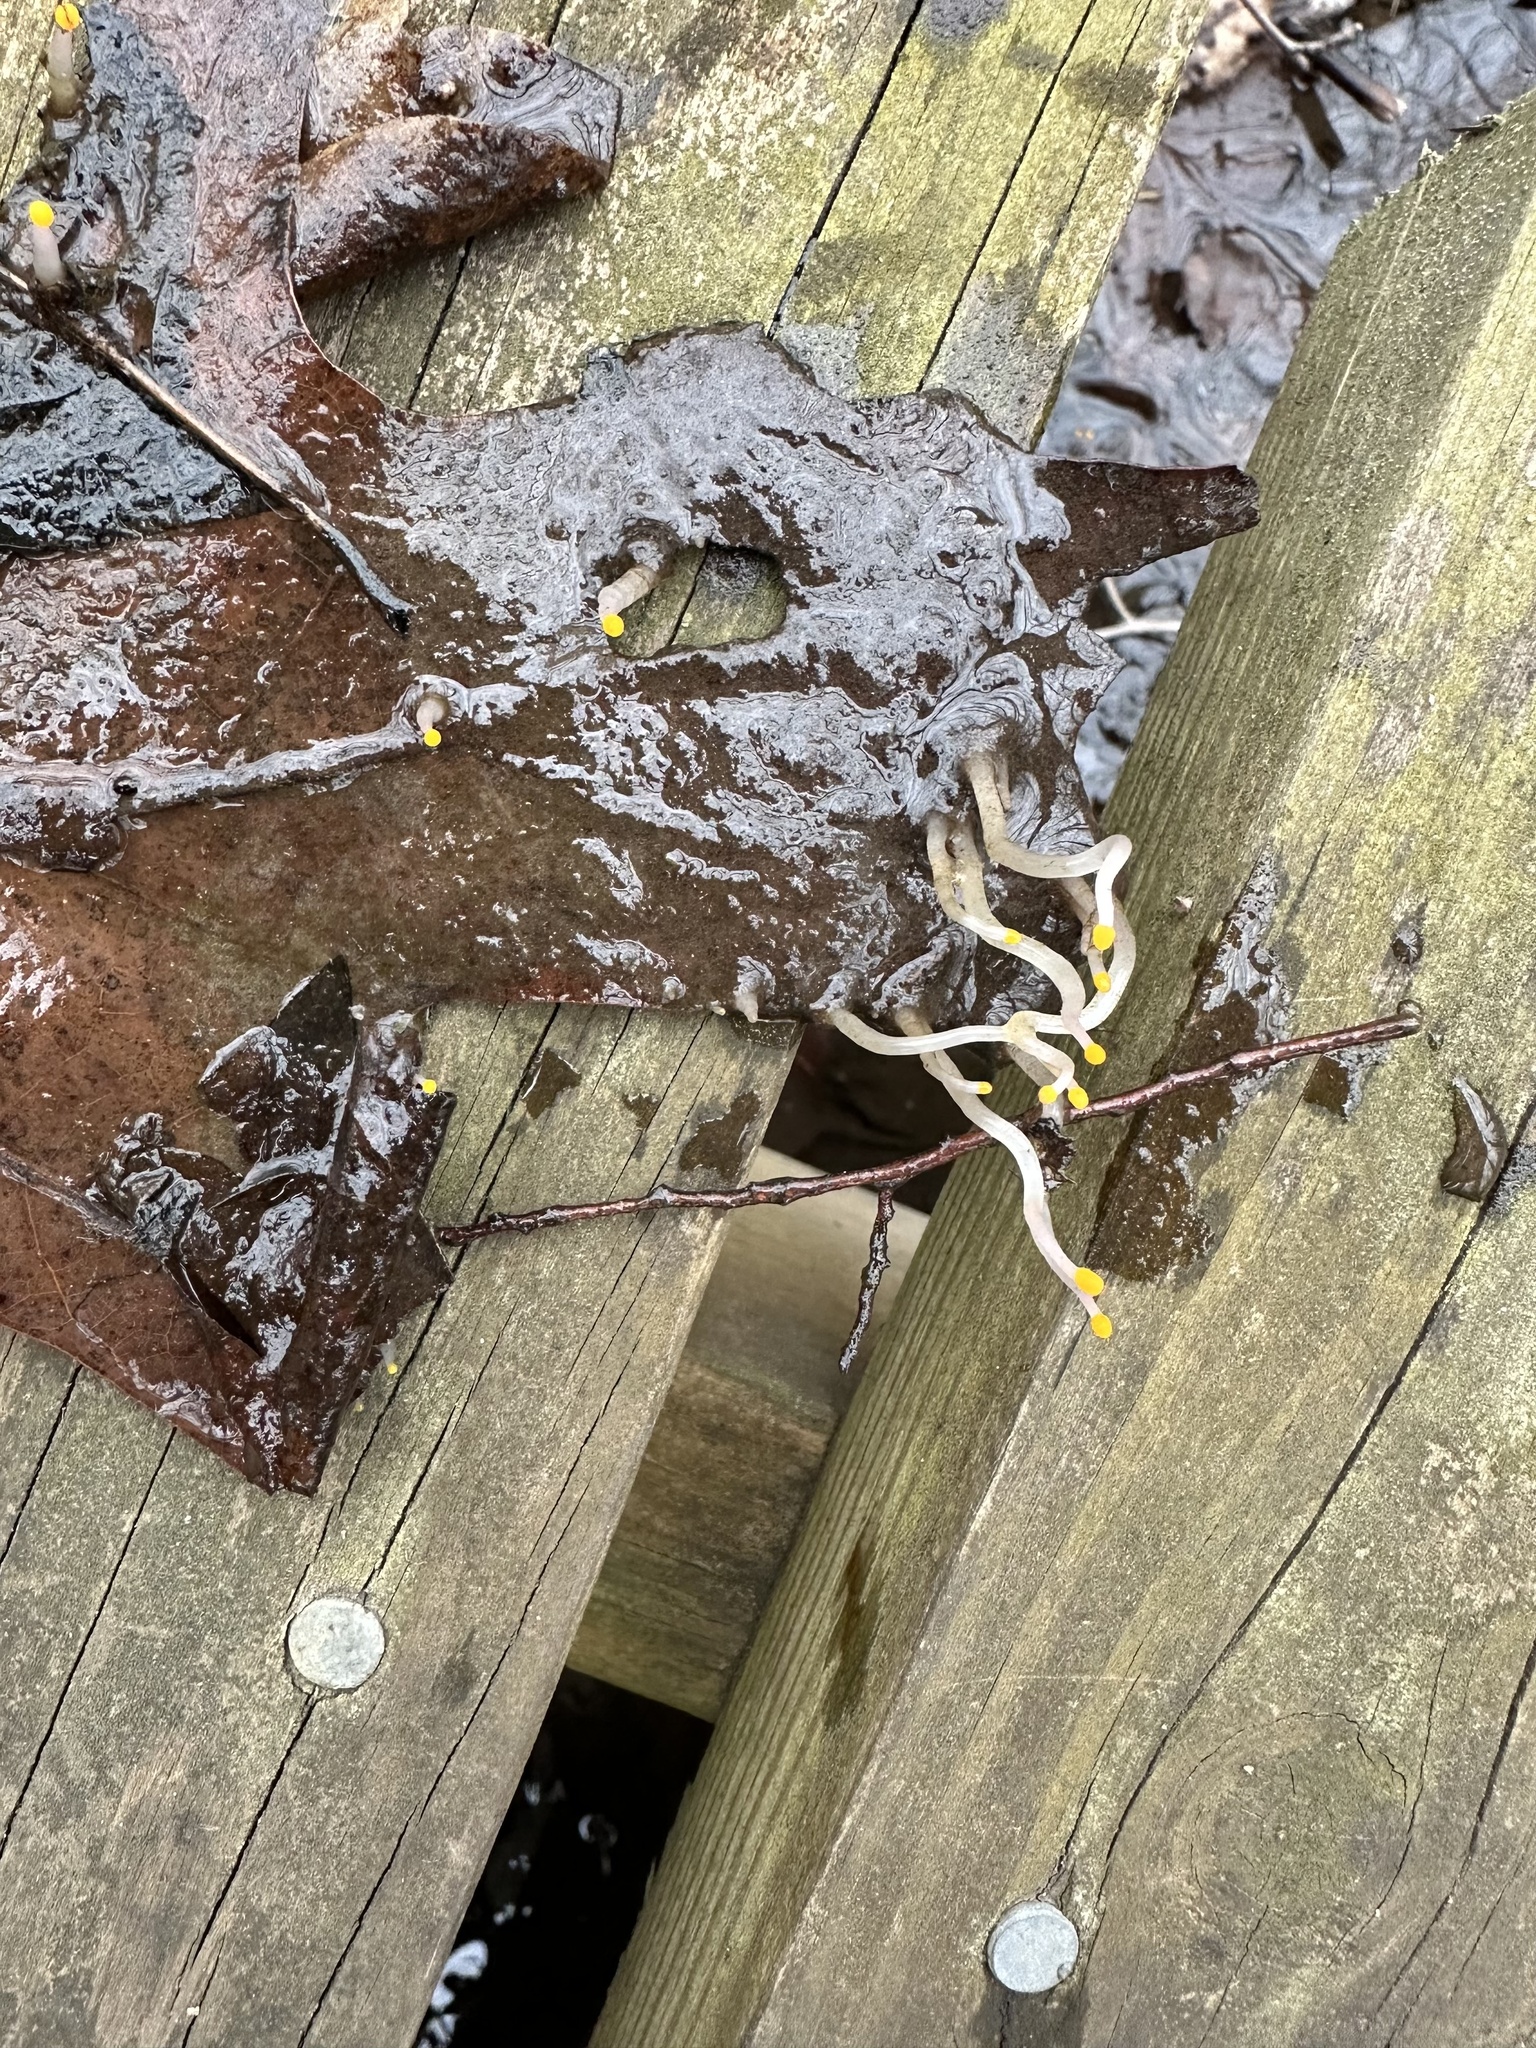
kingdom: Fungi
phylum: Ascomycota
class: Leotiomycetes
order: Helotiales
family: Sclerotiniaceae
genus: Mitrula
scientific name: Mitrula elegans
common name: Swamp beacon
